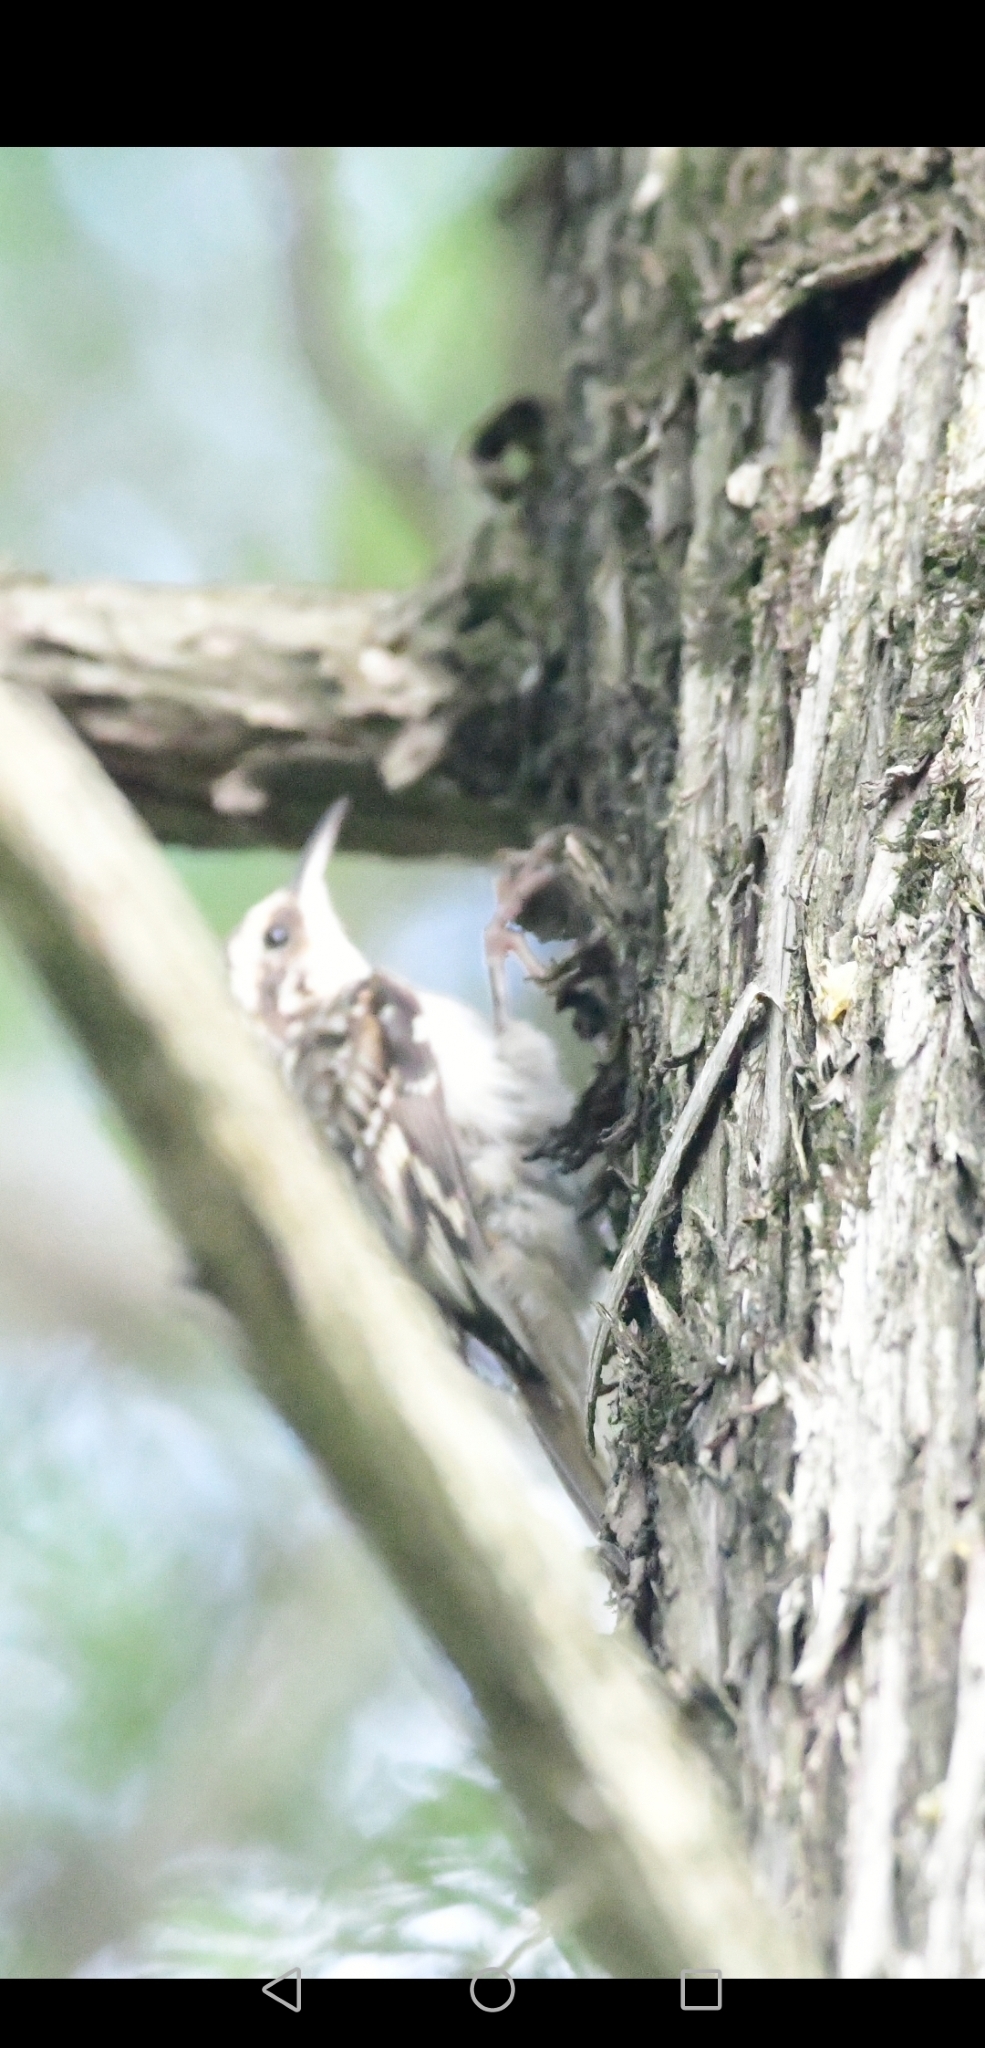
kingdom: Animalia
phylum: Chordata
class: Aves
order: Passeriformes
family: Certhiidae
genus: Certhia
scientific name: Certhia americana
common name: Brown creeper
